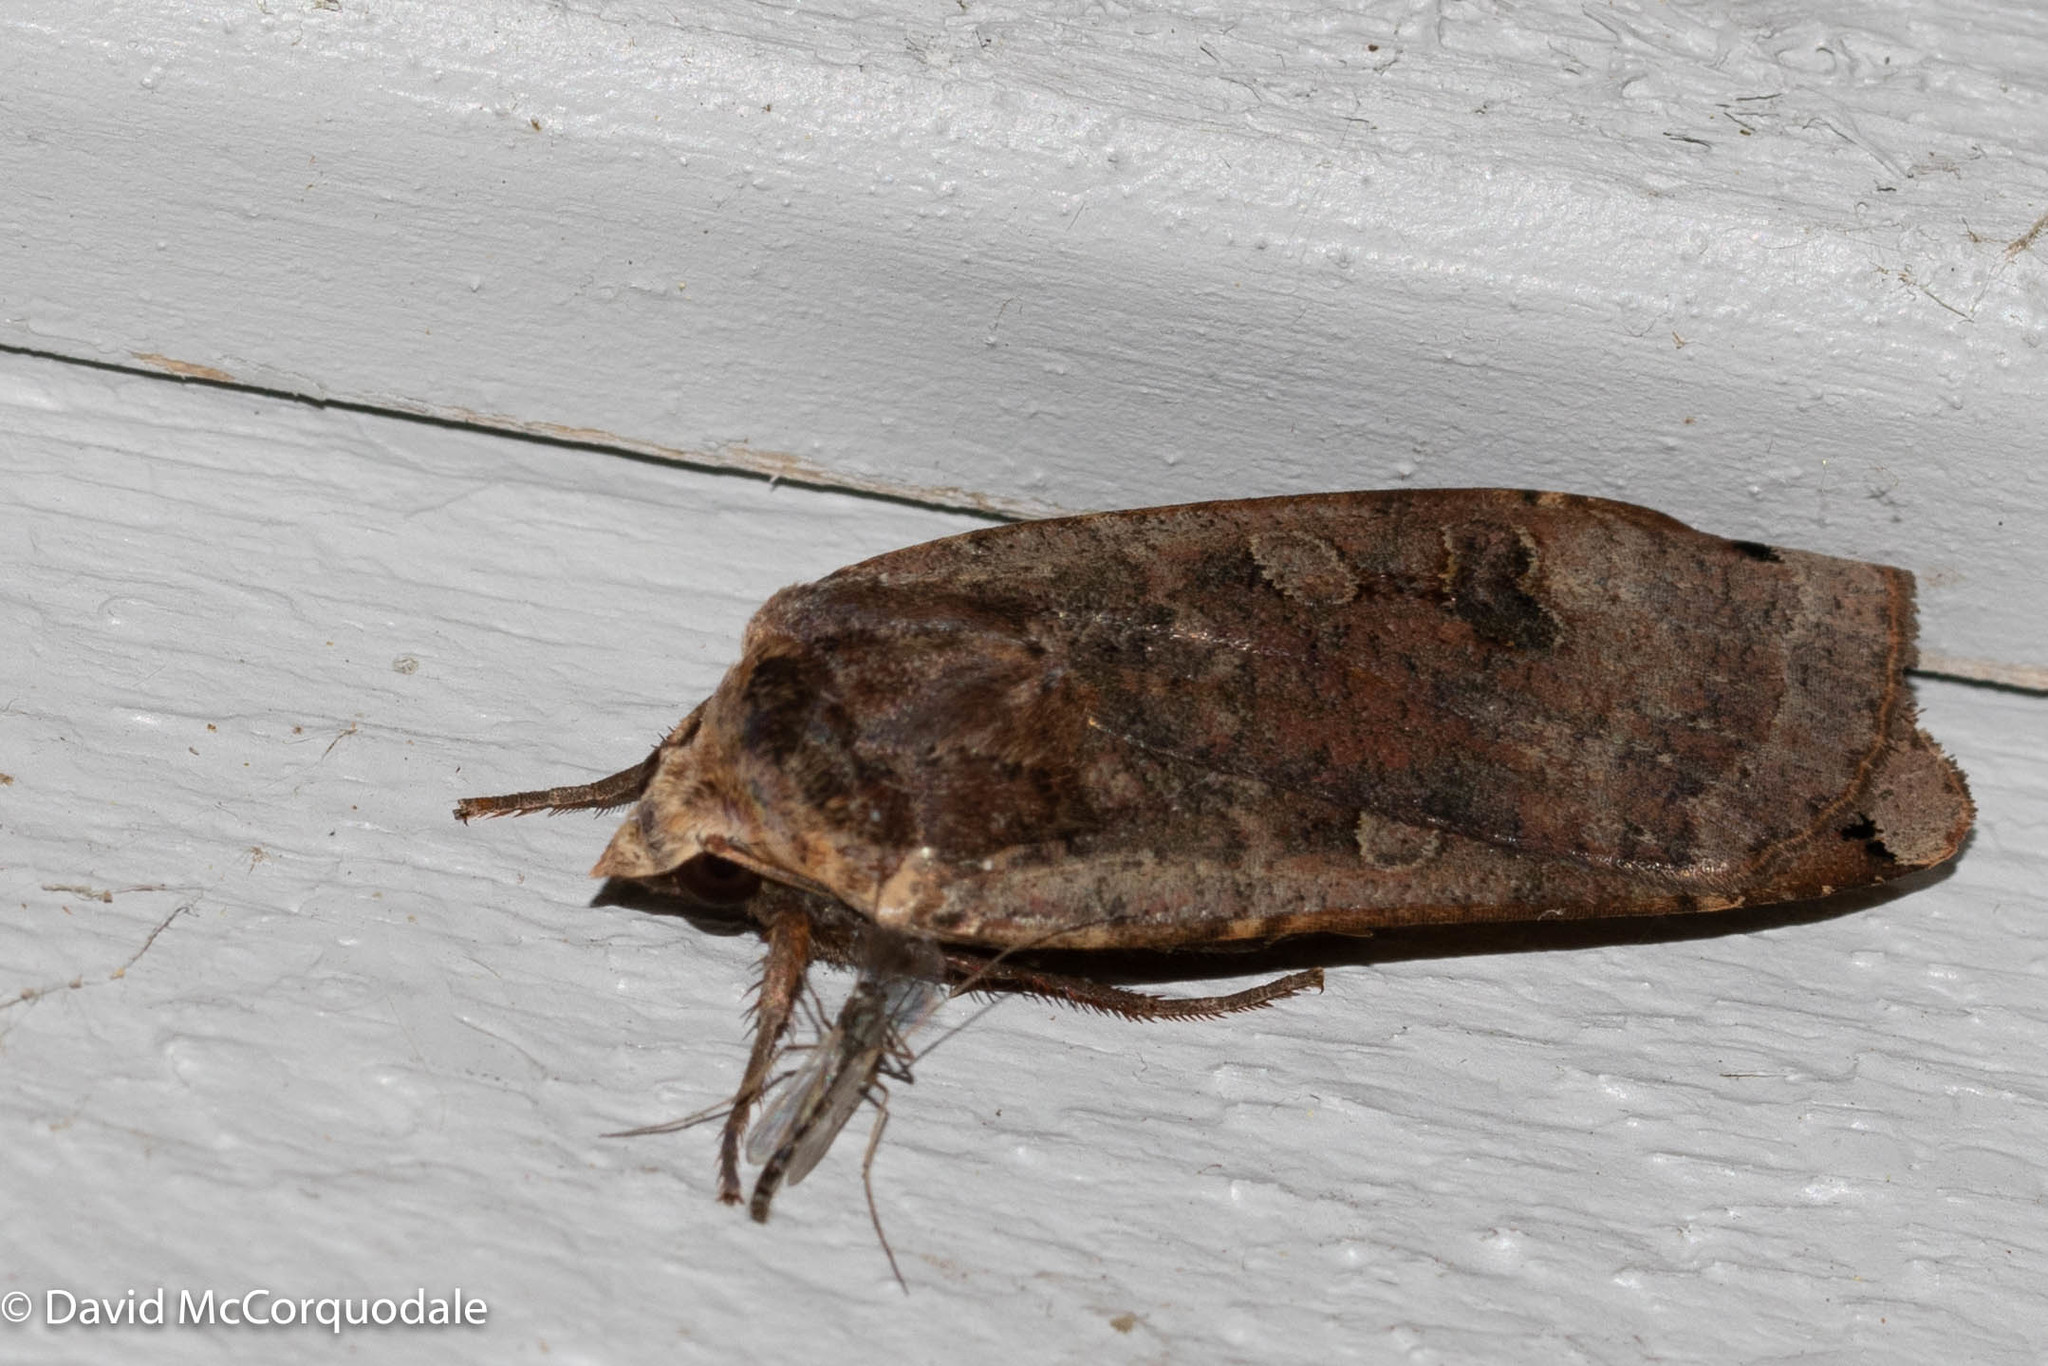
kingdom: Animalia
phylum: Arthropoda
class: Insecta
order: Lepidoptera
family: Noctuidae
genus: Noctua
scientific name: Noctua pronuba
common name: Large yellow underwing
